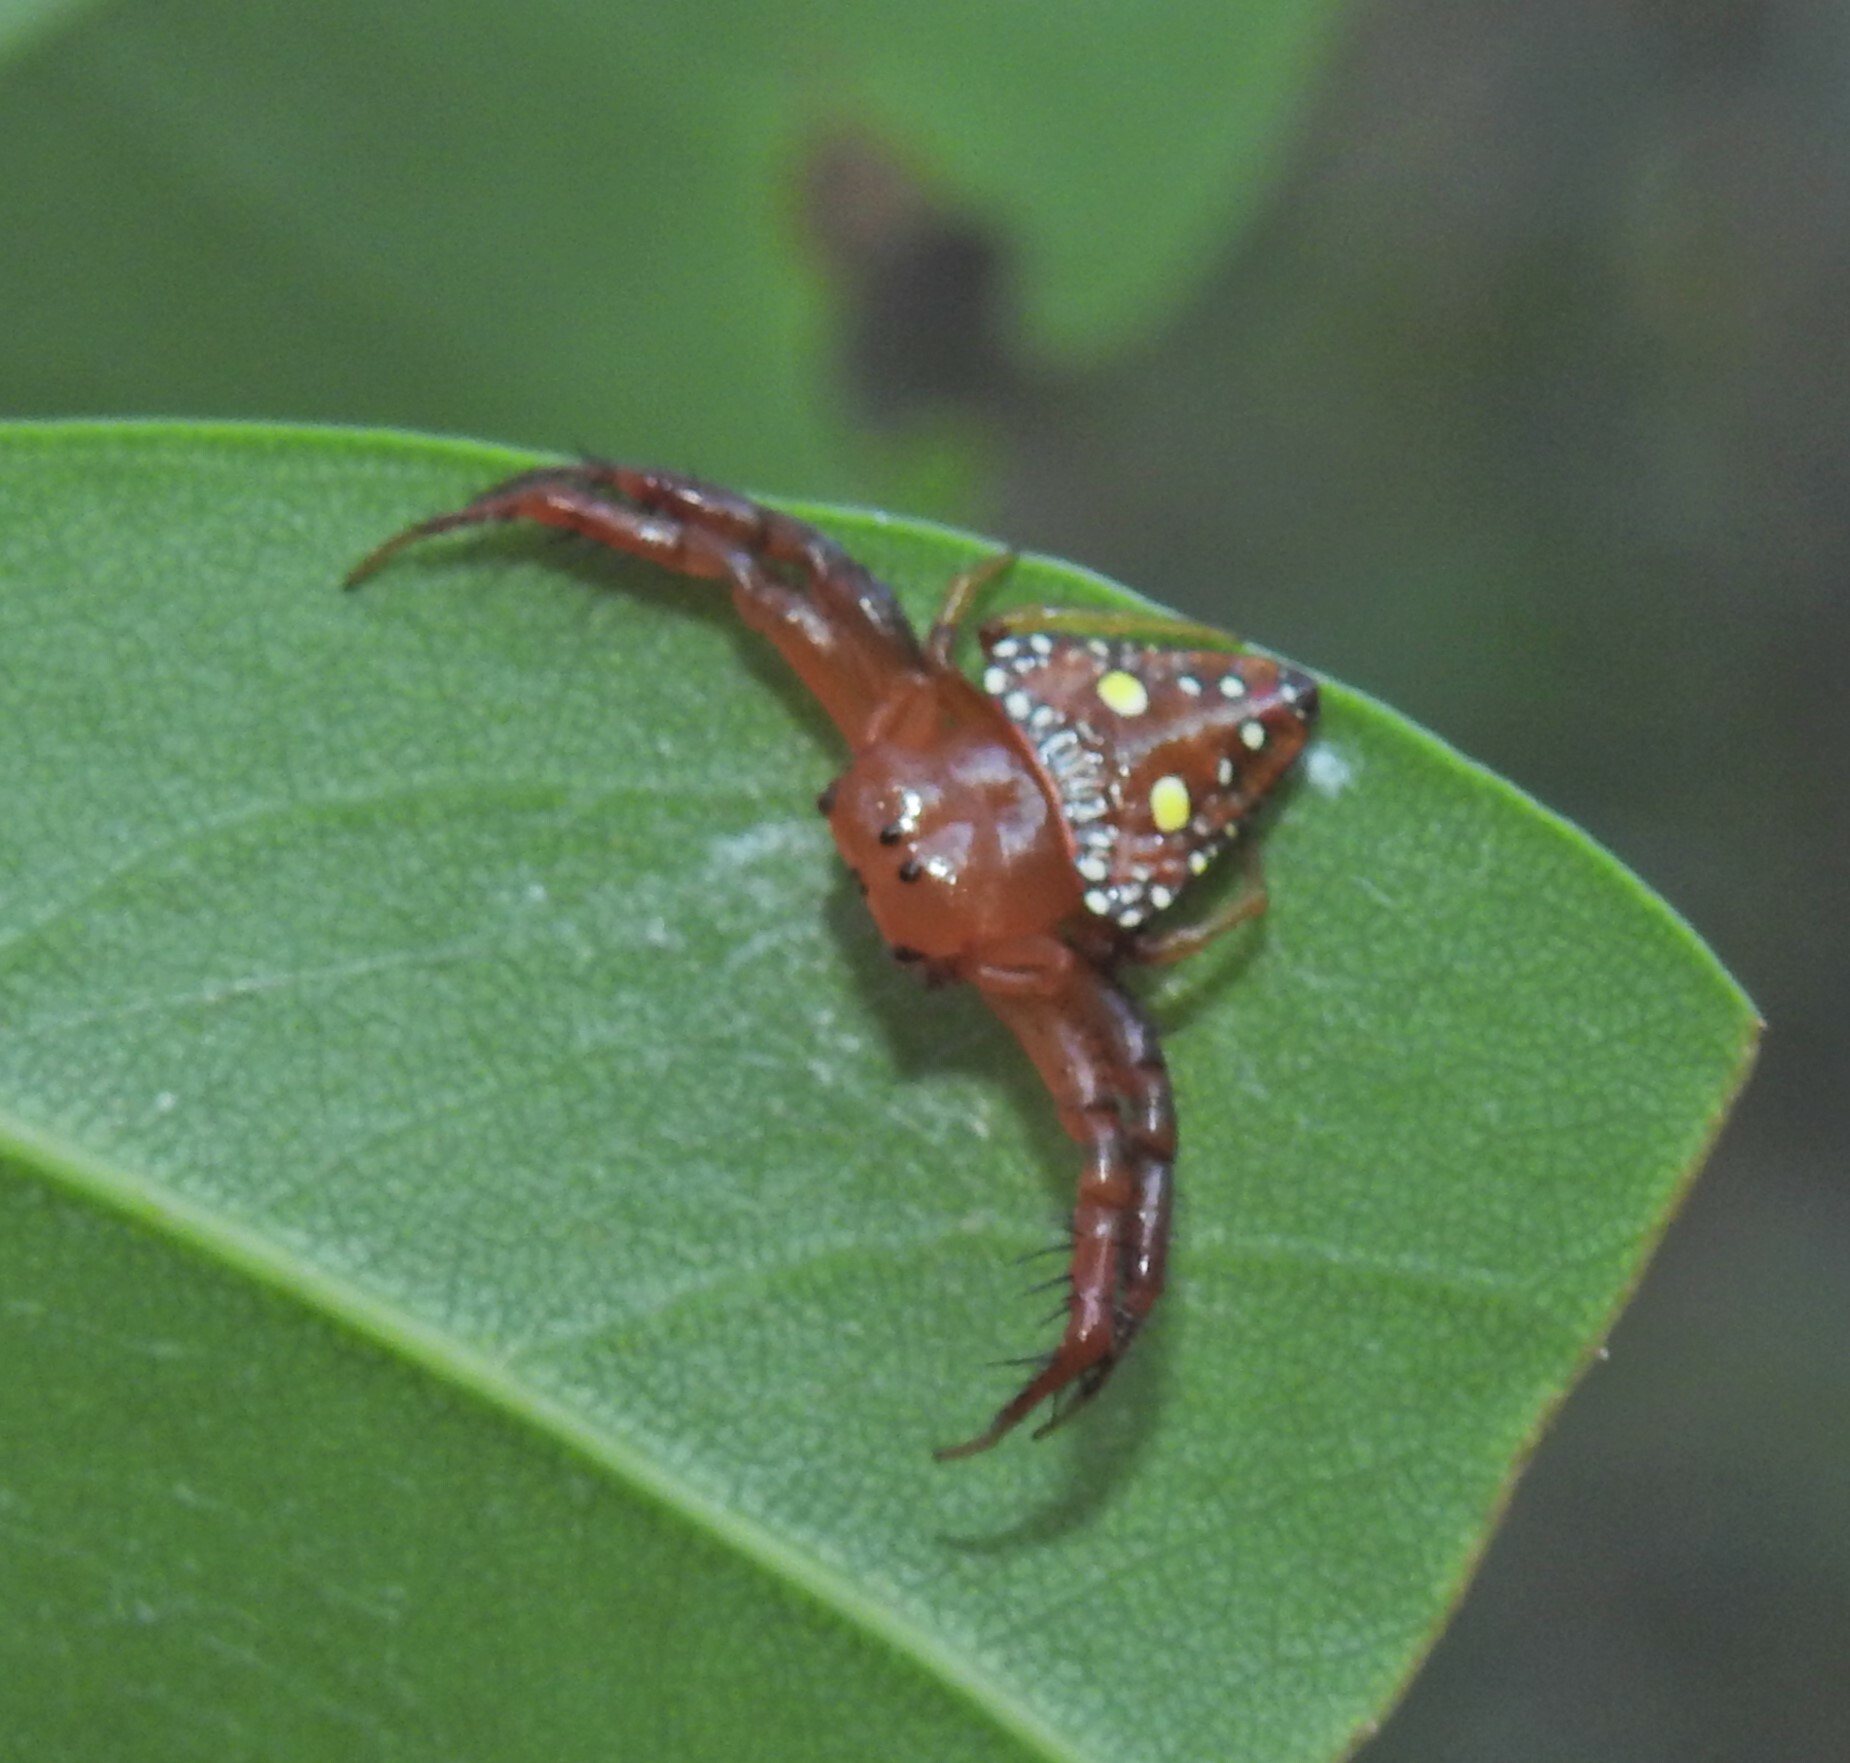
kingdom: Animalia
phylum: Arthropoda
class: Arachnida
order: Araneae
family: Arkyidae
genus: Arkys
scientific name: Arkys lancearius
